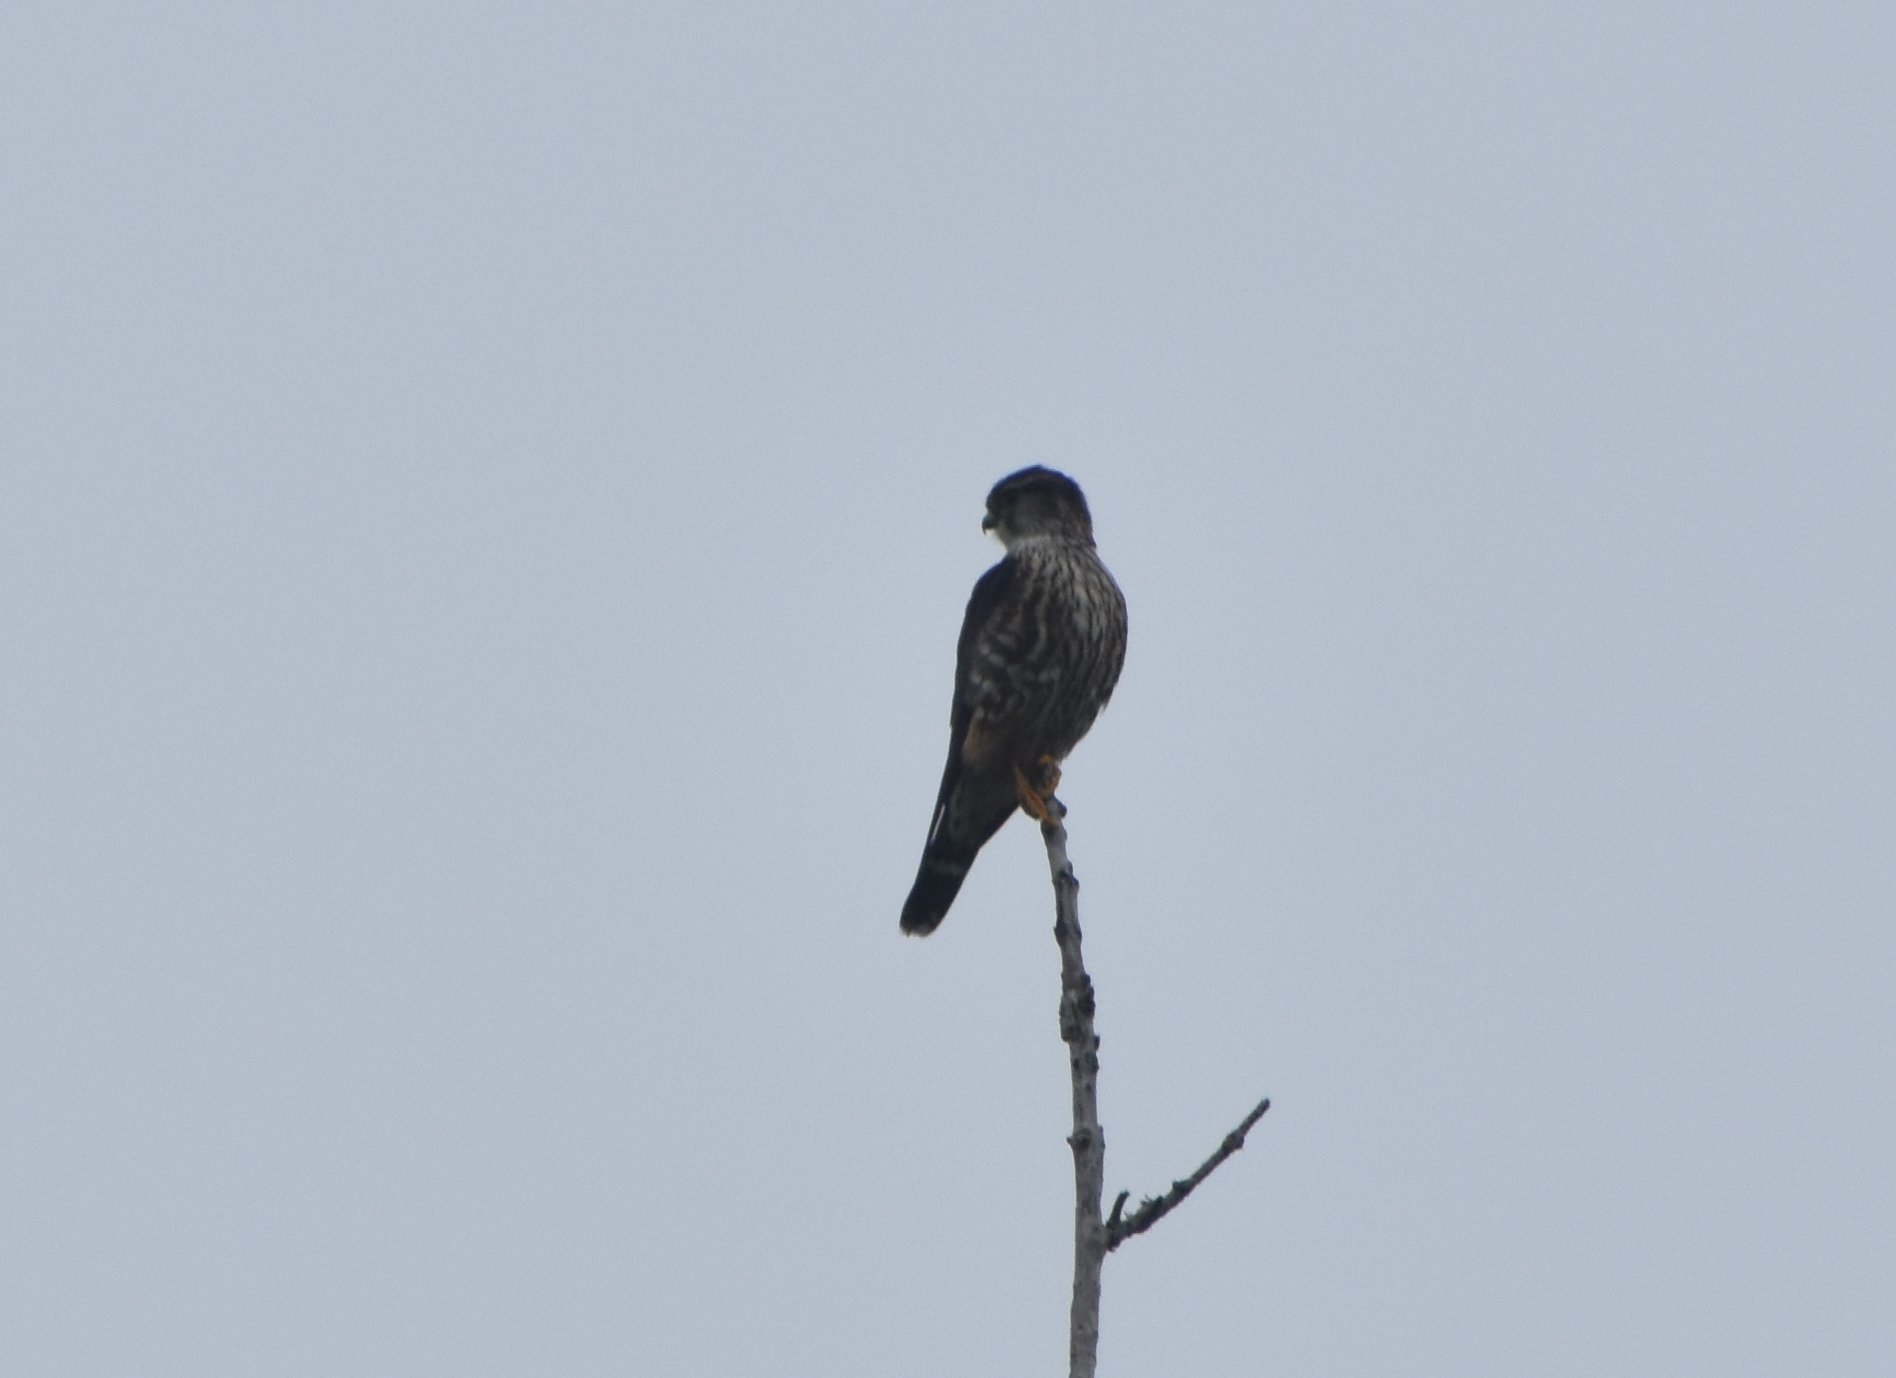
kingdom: Animalia
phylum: Chordata
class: Aves
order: Falconiformes
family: Falconidae
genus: Falco
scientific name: Falco columbarius
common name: Merlin
